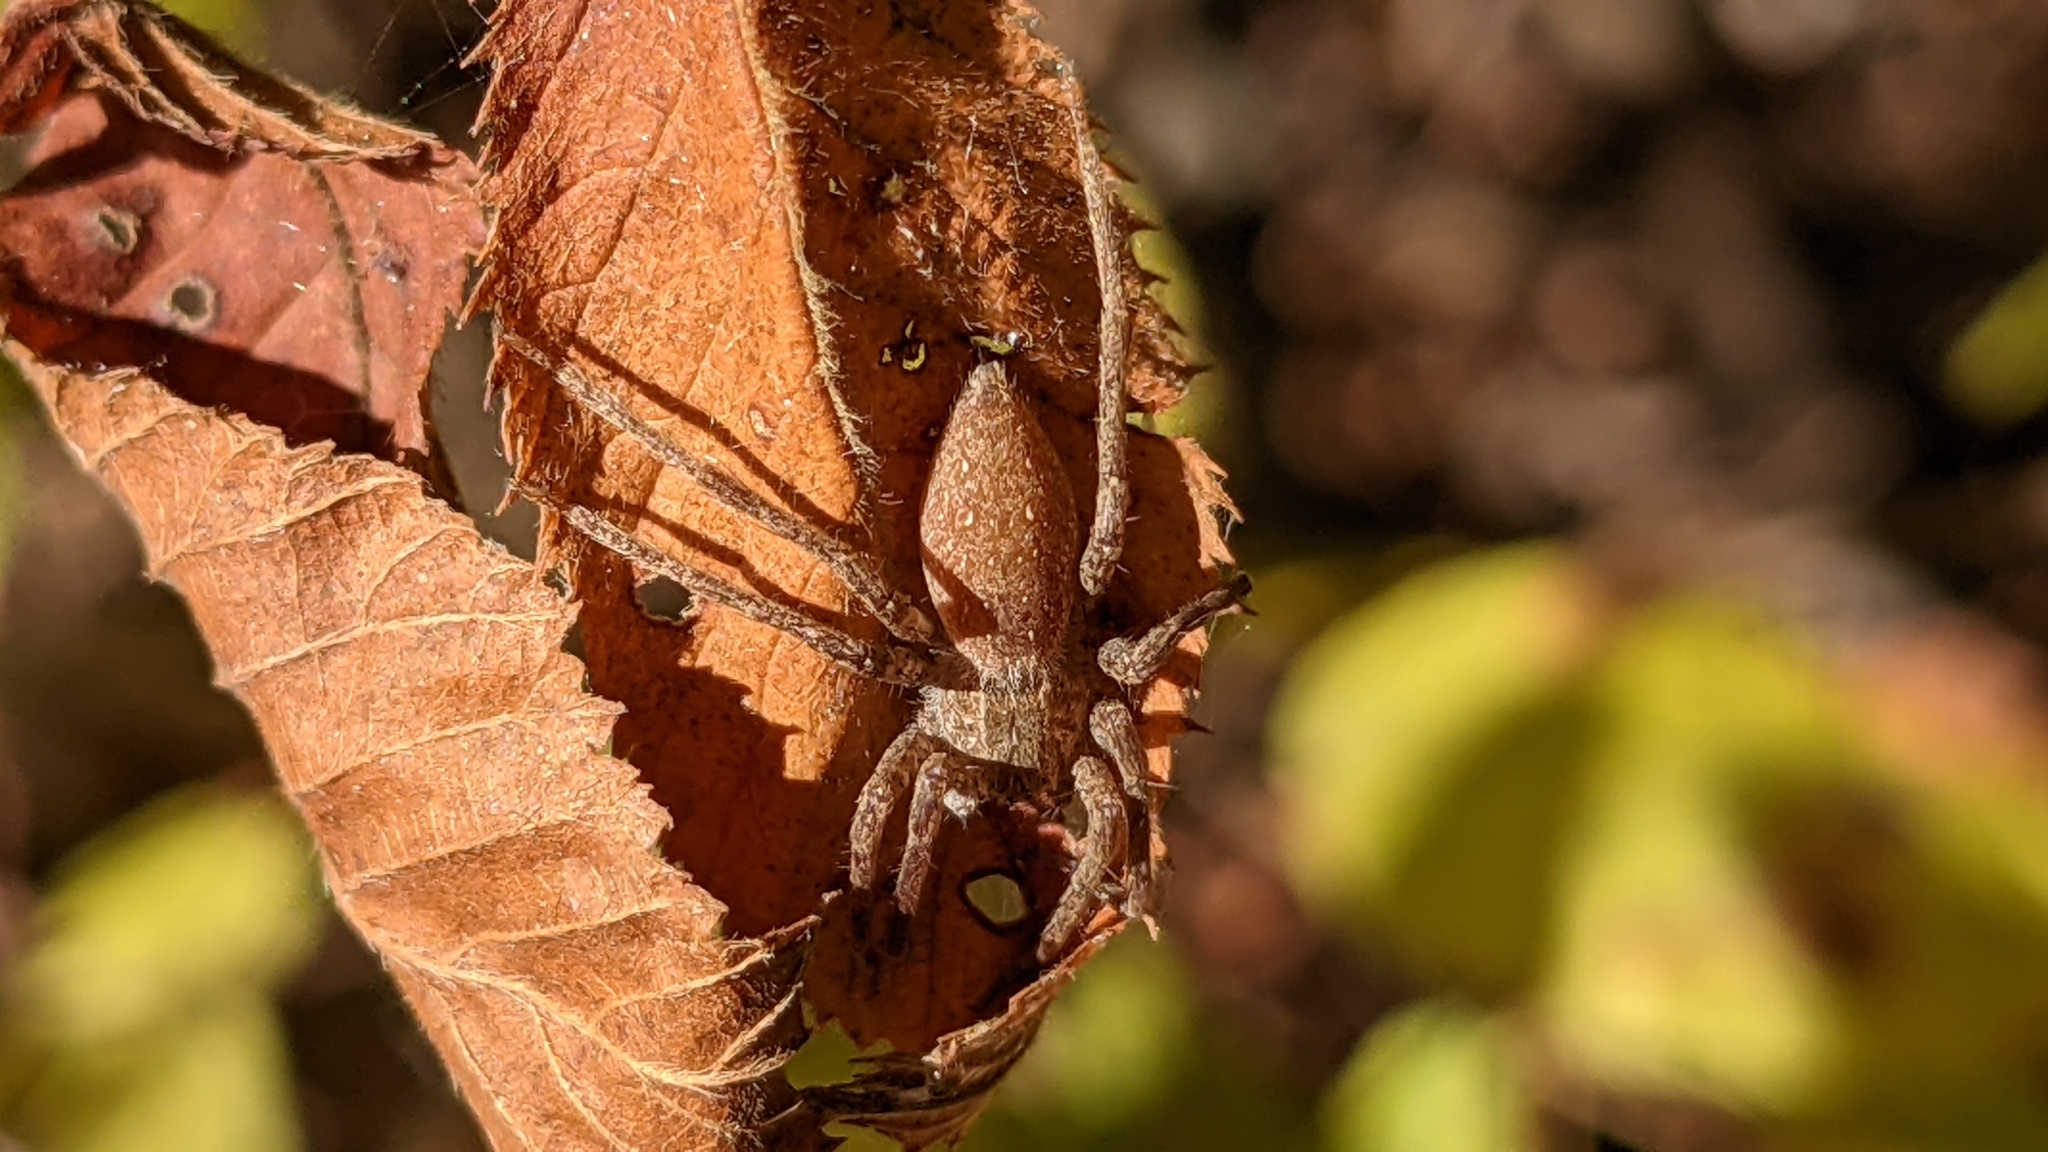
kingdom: Animalia
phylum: Arthropoda
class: Arachnida
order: Araneae
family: Pisauridae
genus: Pisaurina
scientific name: Pisaurina mira
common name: American nursery web spider
